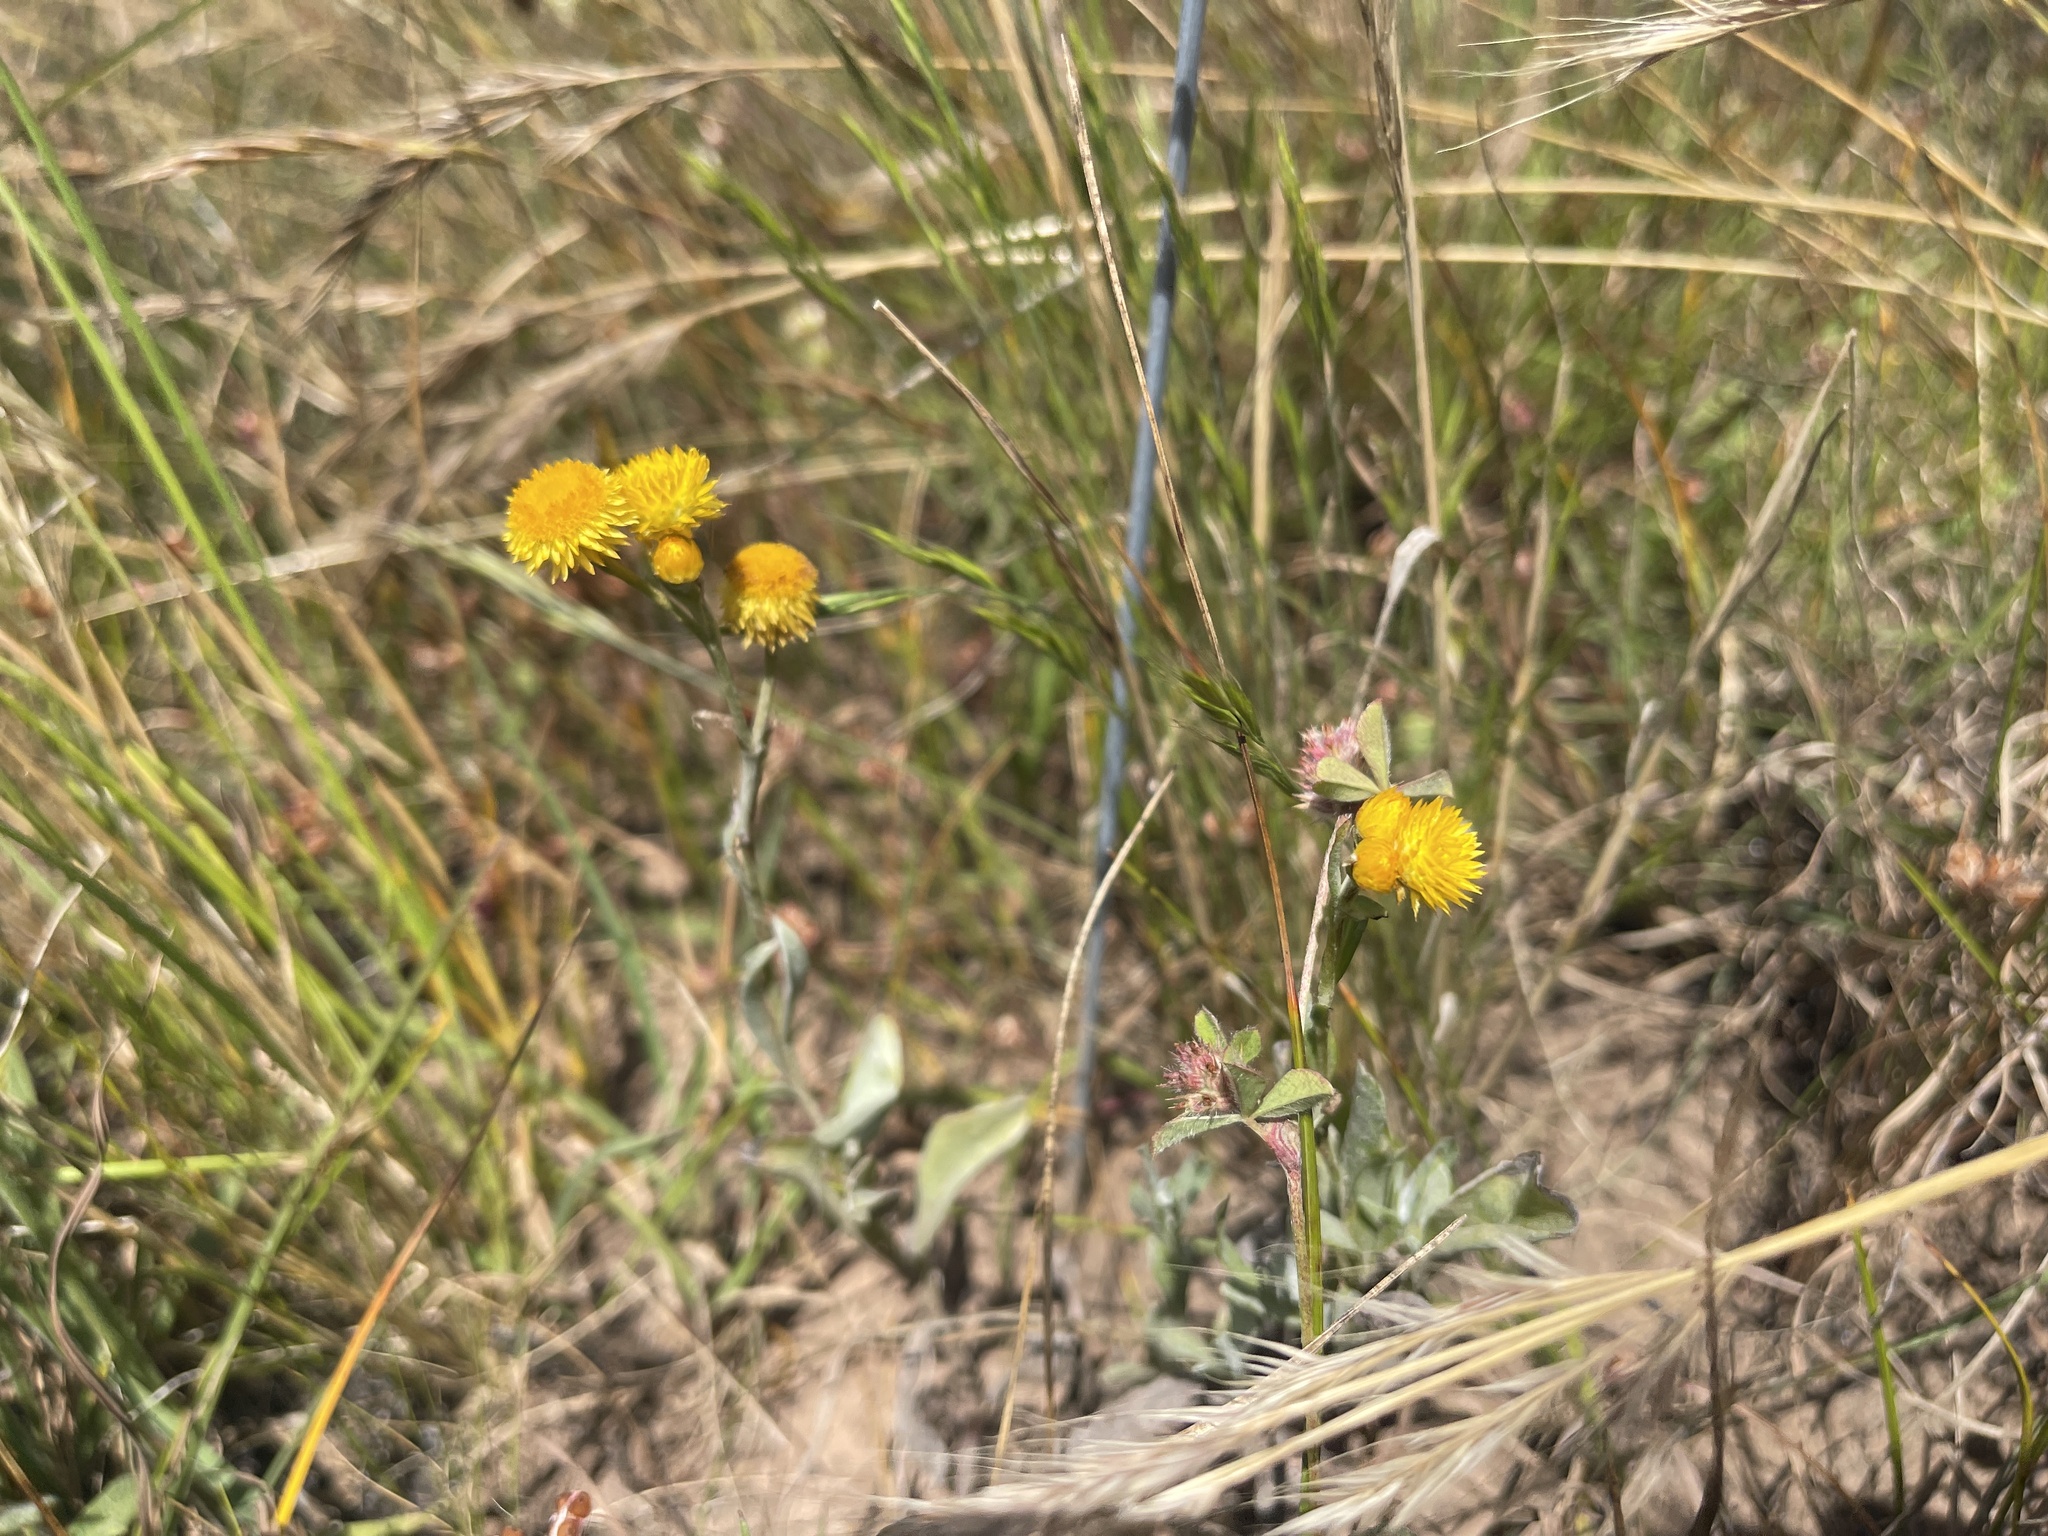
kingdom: Plantae
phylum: Tracheophyta
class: Magnoliopsida
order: Asterales
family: Asteraceae
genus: Chrysocephalum
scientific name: Chrysocephalum apiculatum
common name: Common everlasting
